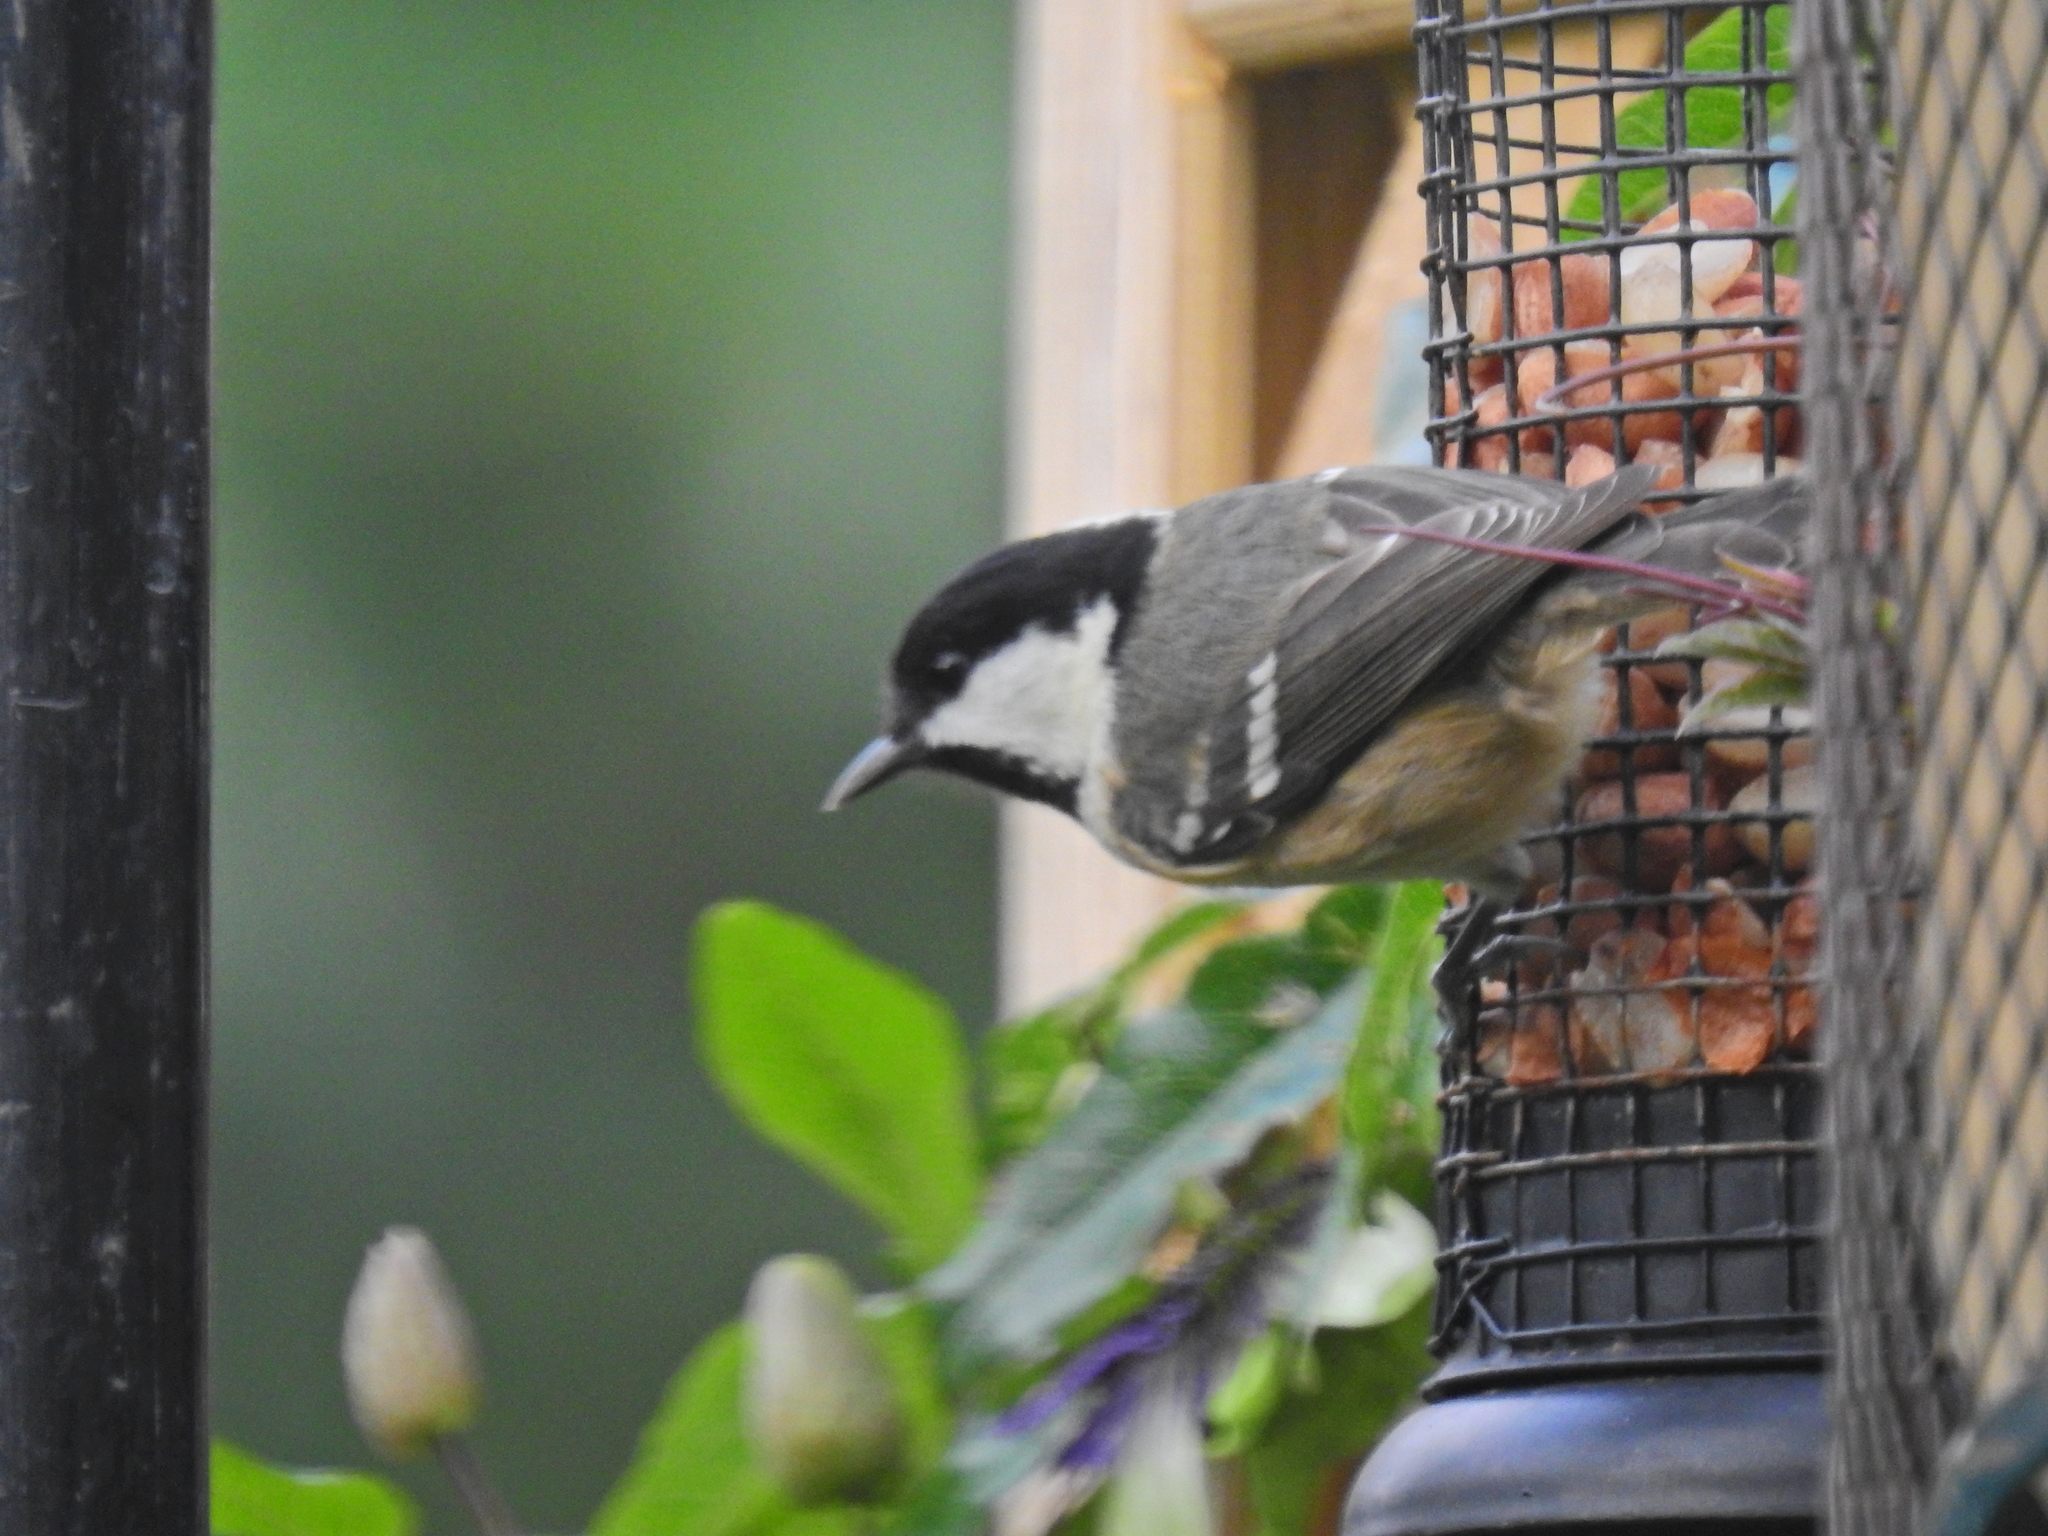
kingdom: Animalia
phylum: Chordata
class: Aves
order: Passeriformes
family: Paridae
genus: Periparus
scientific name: Periparus ater
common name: Coal tit
